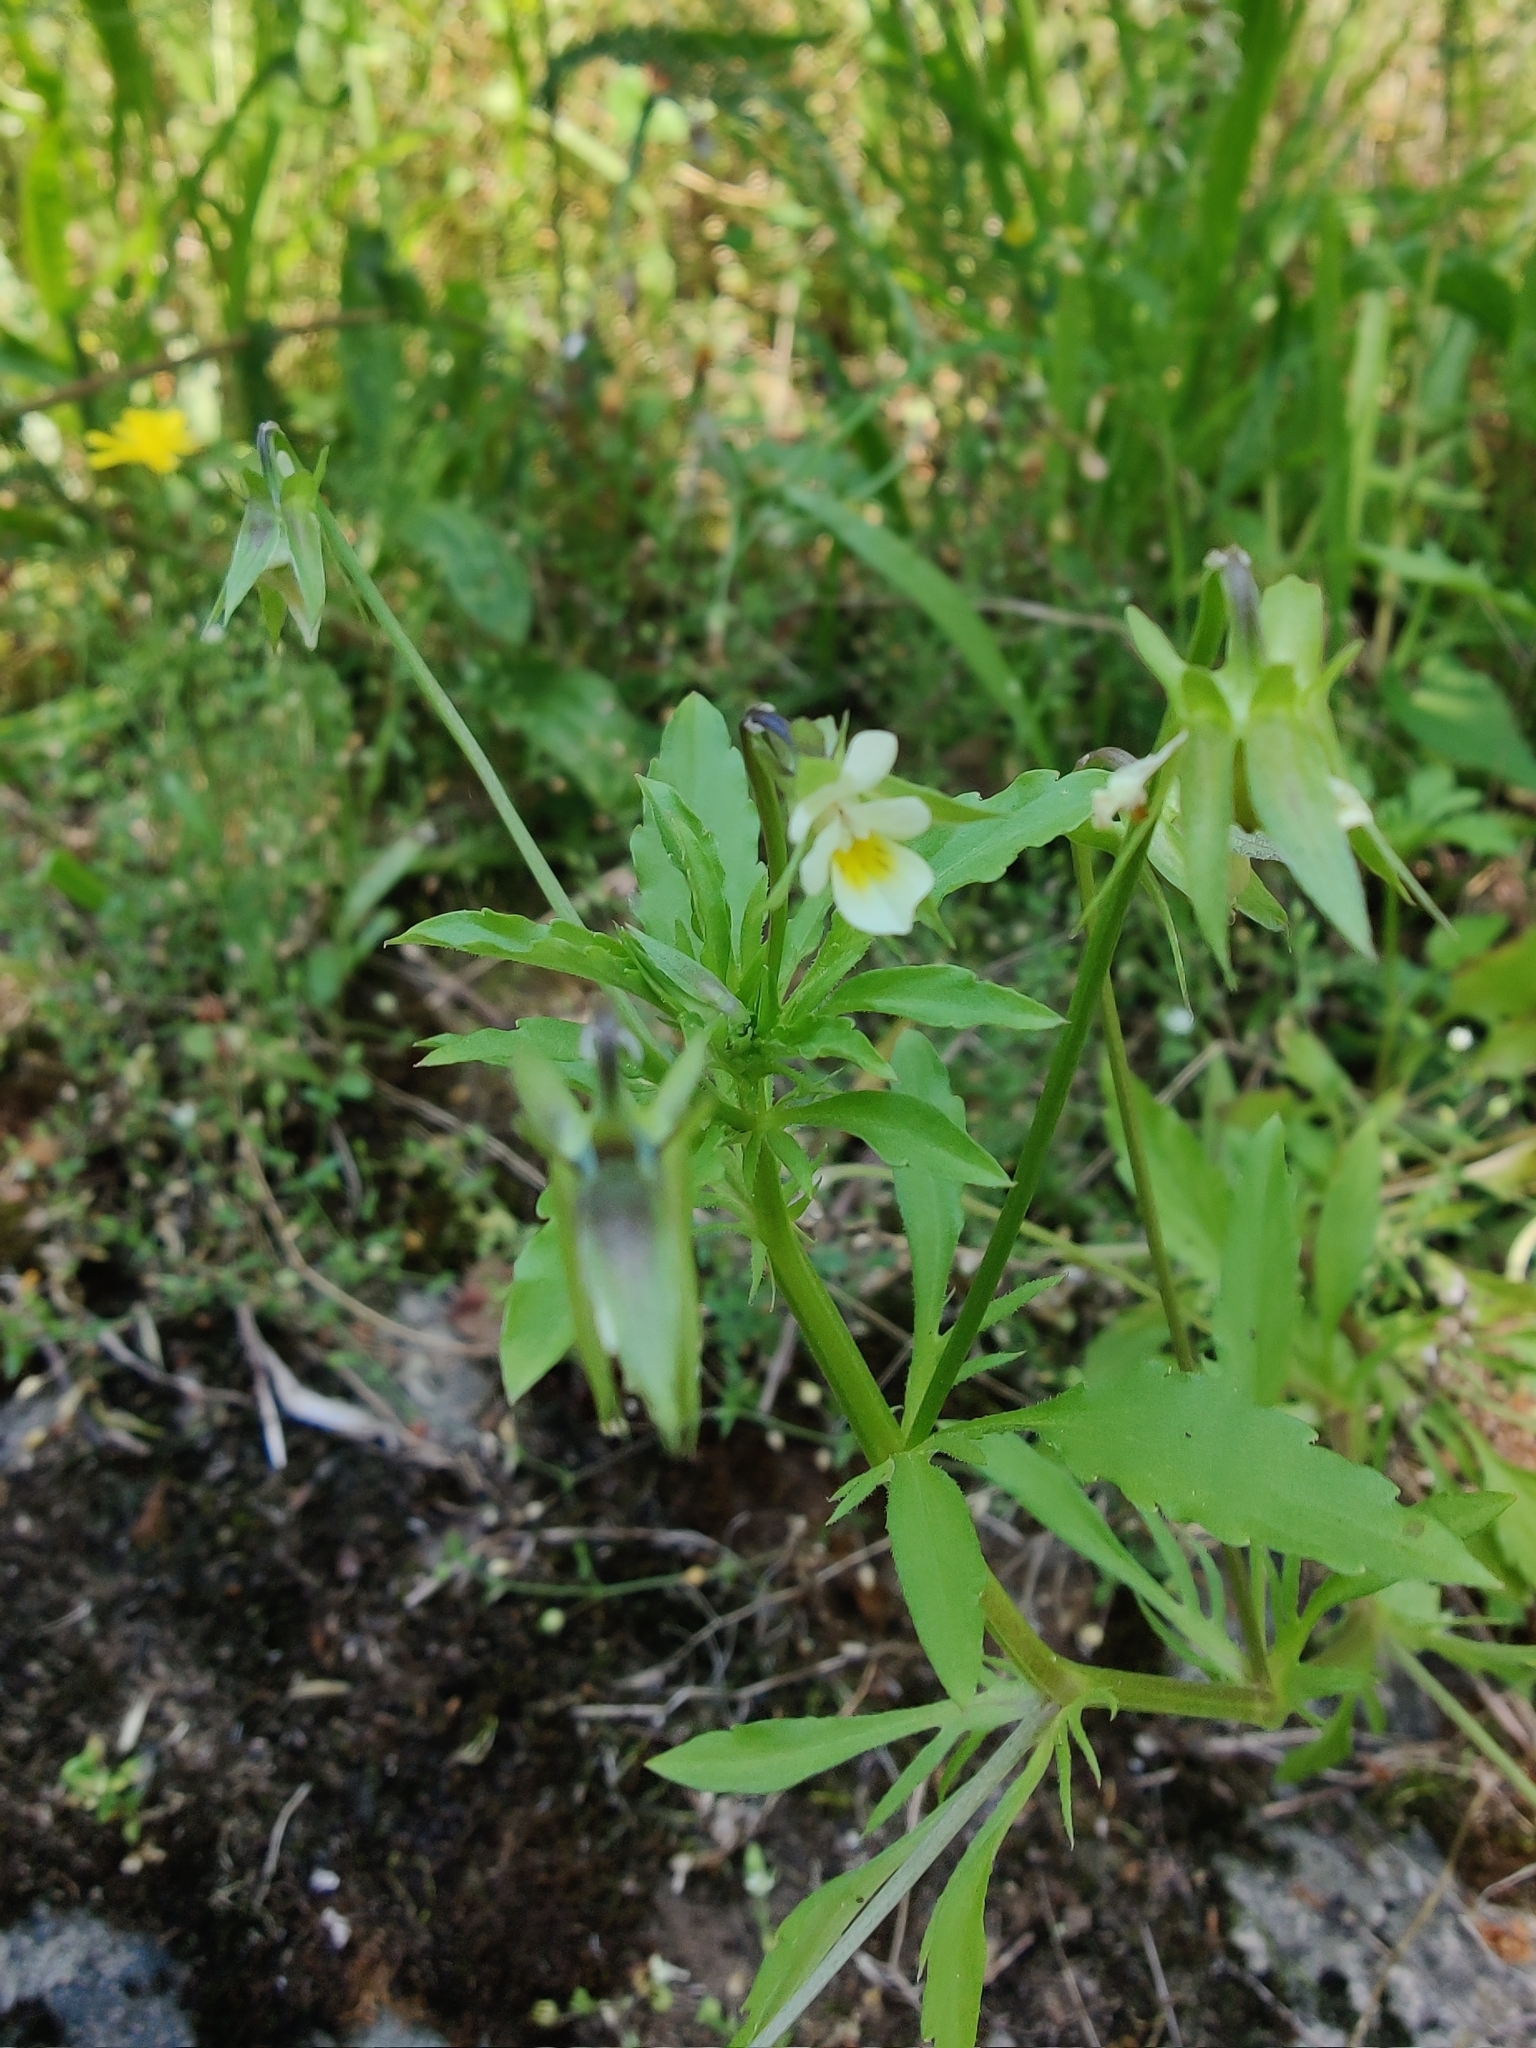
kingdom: Plantae
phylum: Tracheophyta
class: Magnoliopsida
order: Malpighiales
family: Violaceae
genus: Viola
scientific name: Viola arvensis
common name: Field pansy
